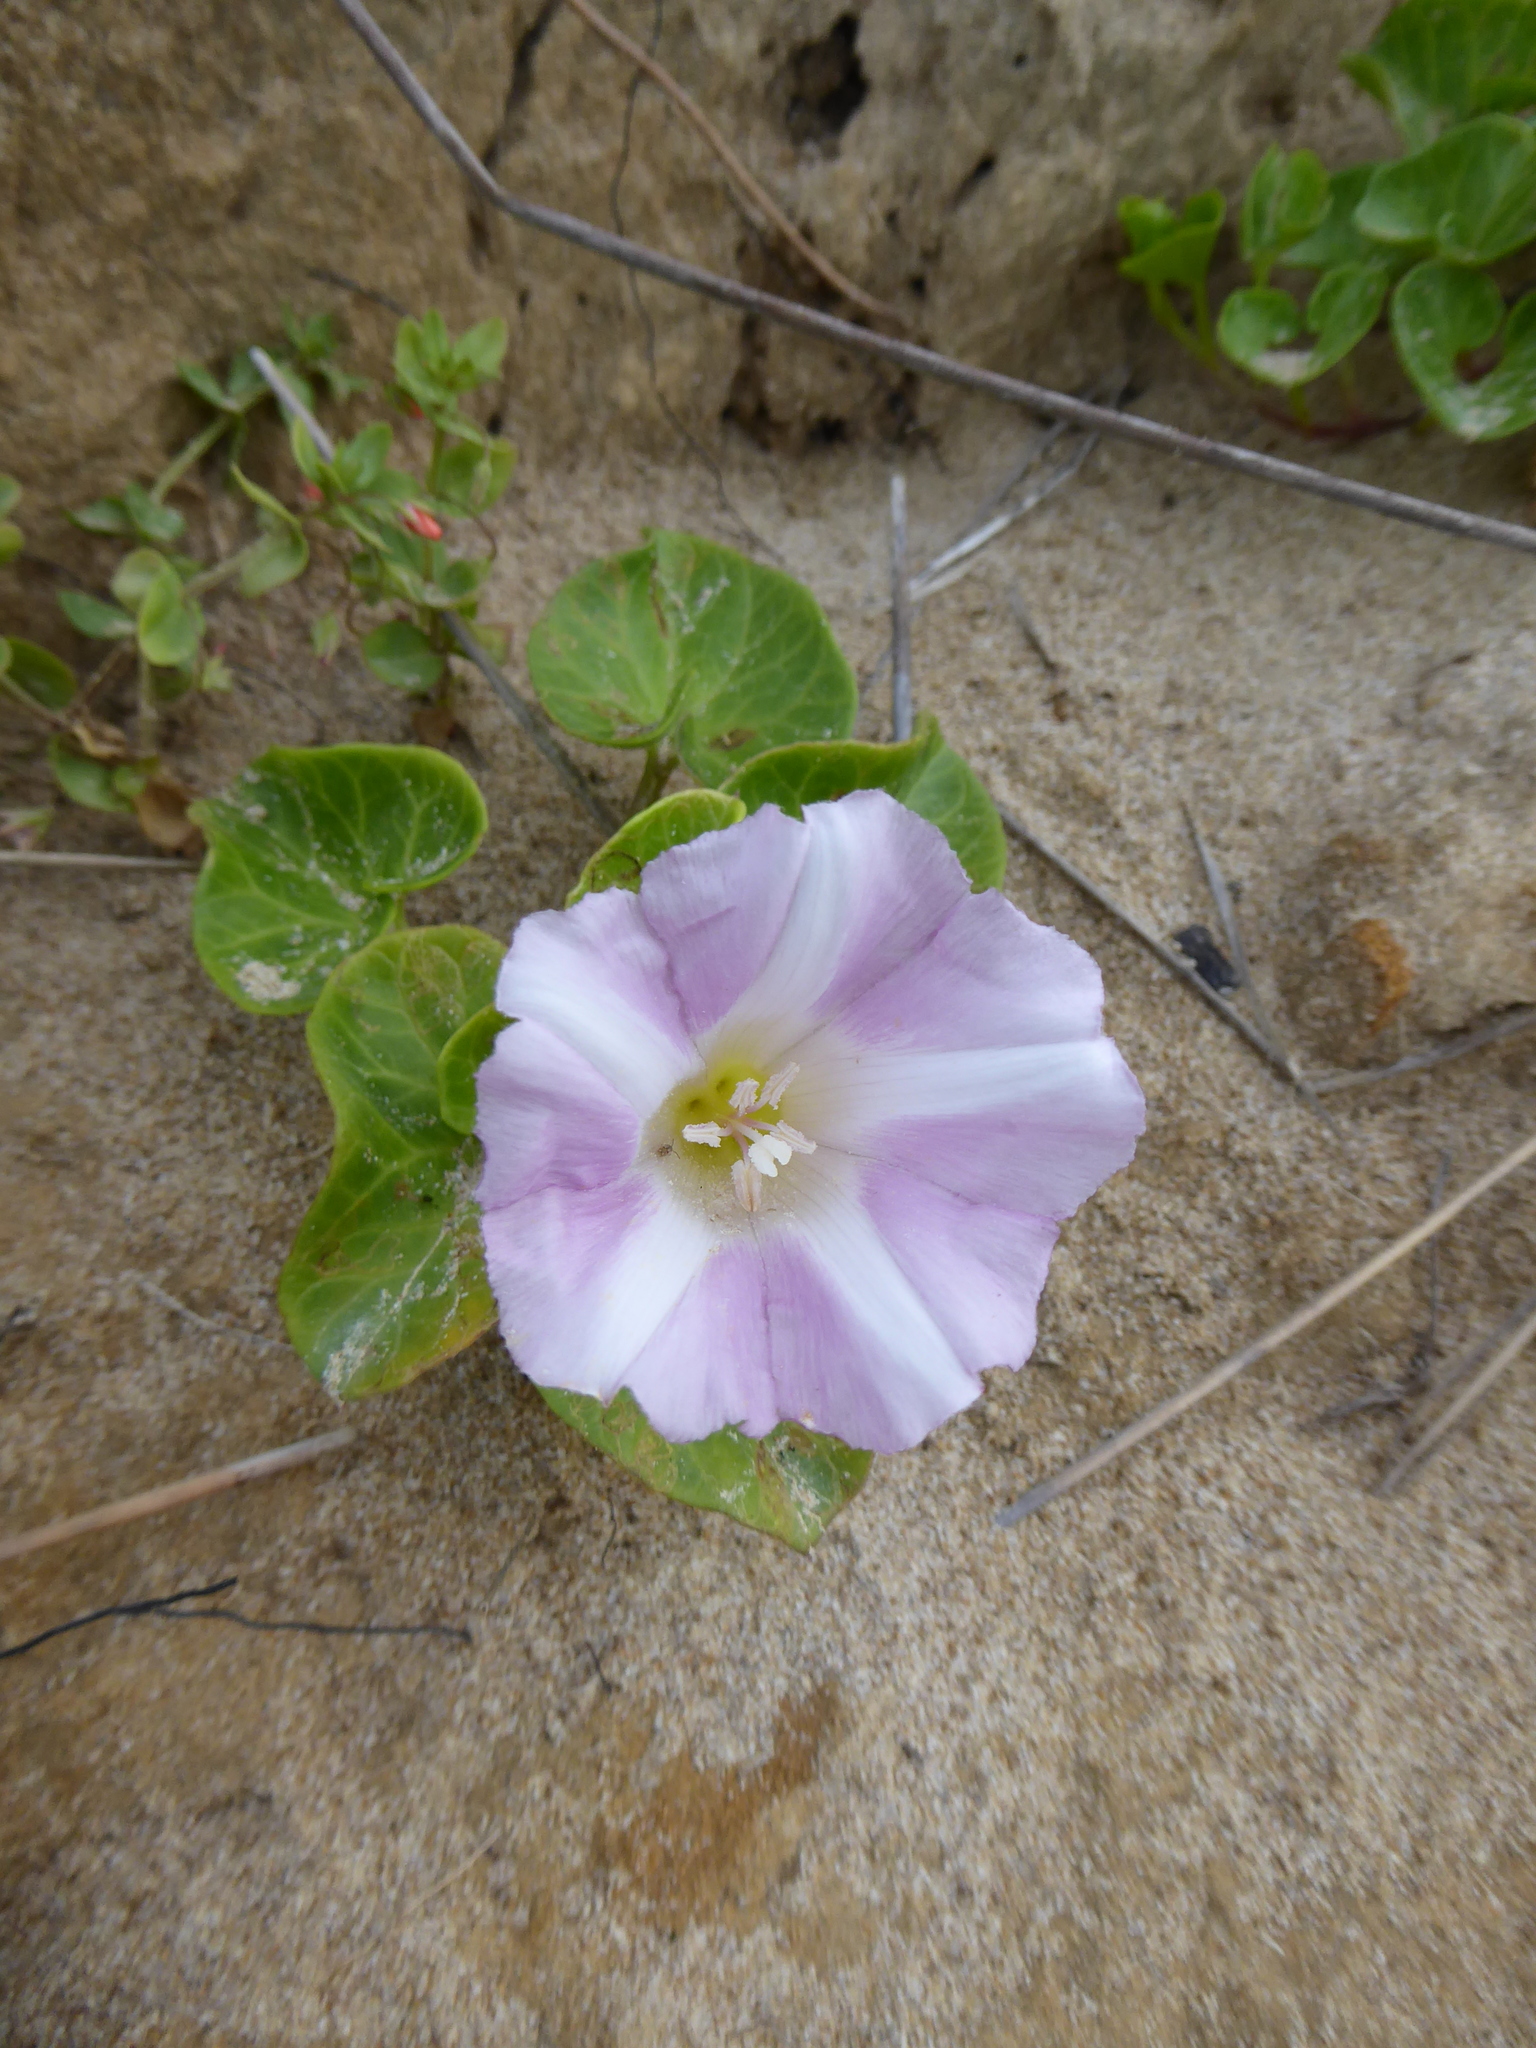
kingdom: Plantae
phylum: Tracheophyta
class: Magnoliopsida
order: Solanales
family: Convolvulaceae
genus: Calystegia
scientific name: Calystegia soldanella
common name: Sea bindweed
